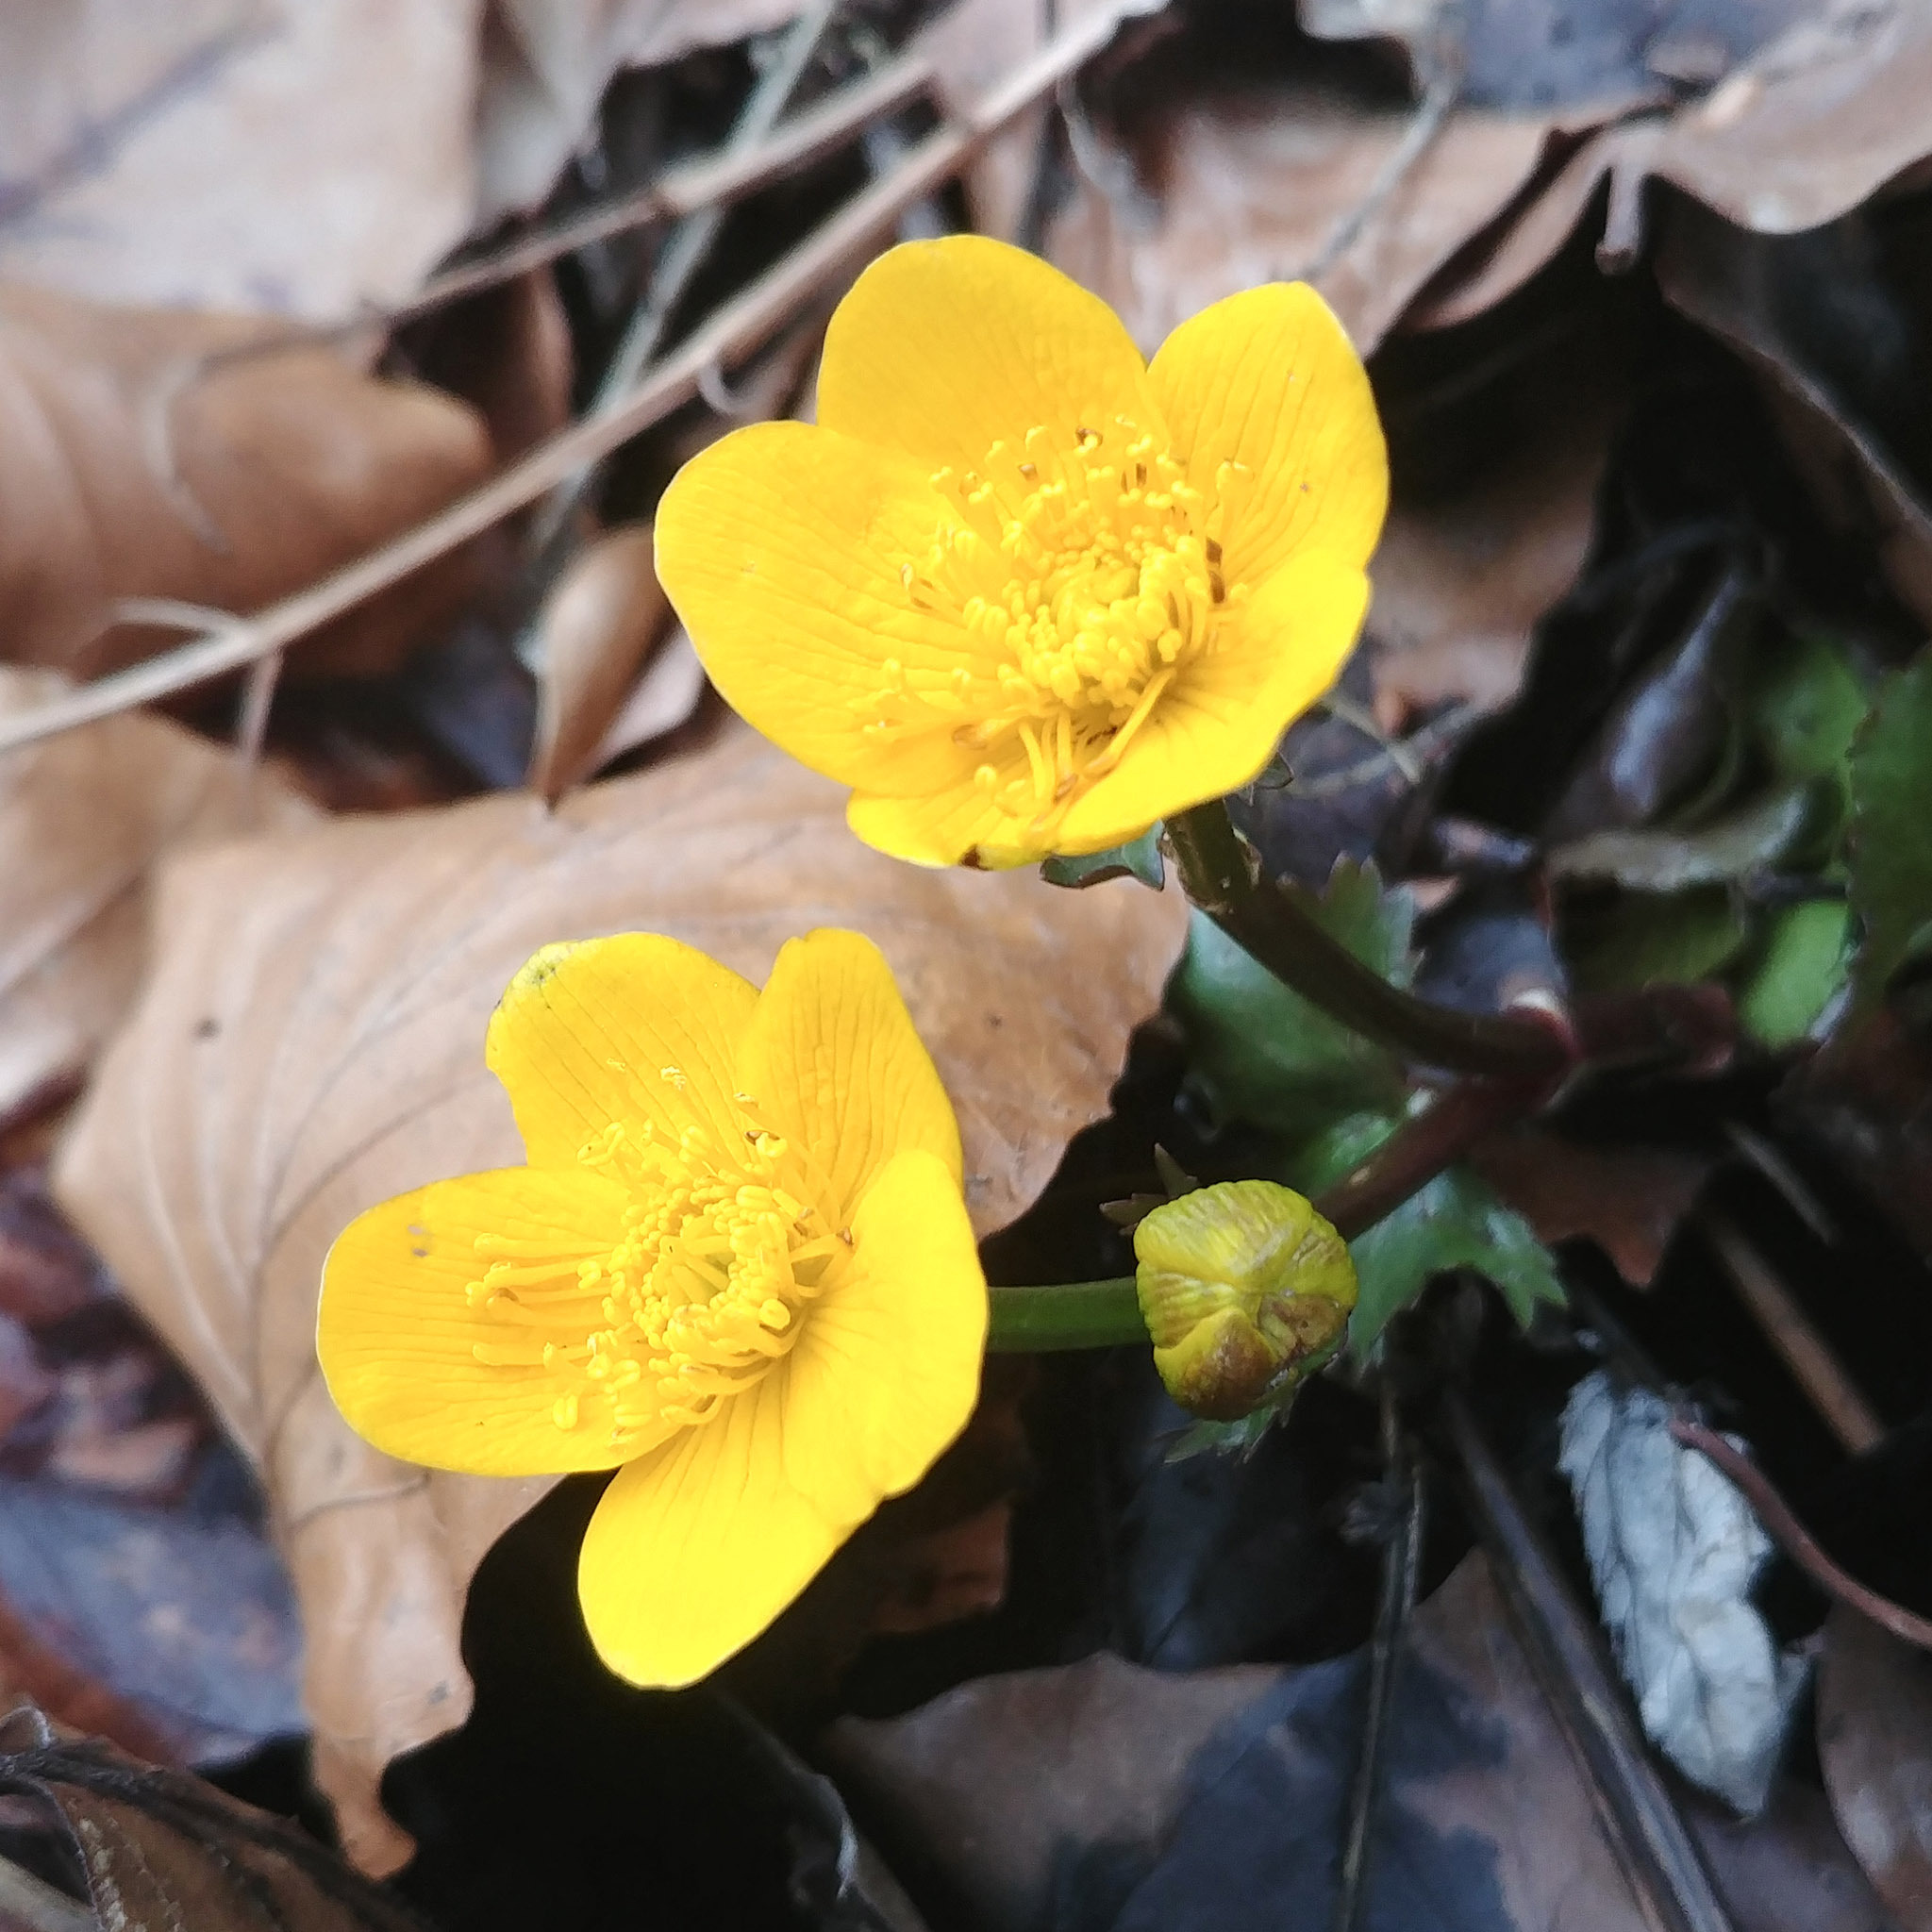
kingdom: Plantae
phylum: Tracheophyta
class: Magnoliopsida
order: Ranunculales
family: Ranunculaceae
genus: Caltha
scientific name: Caltha palustris
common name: Marsh marigold
